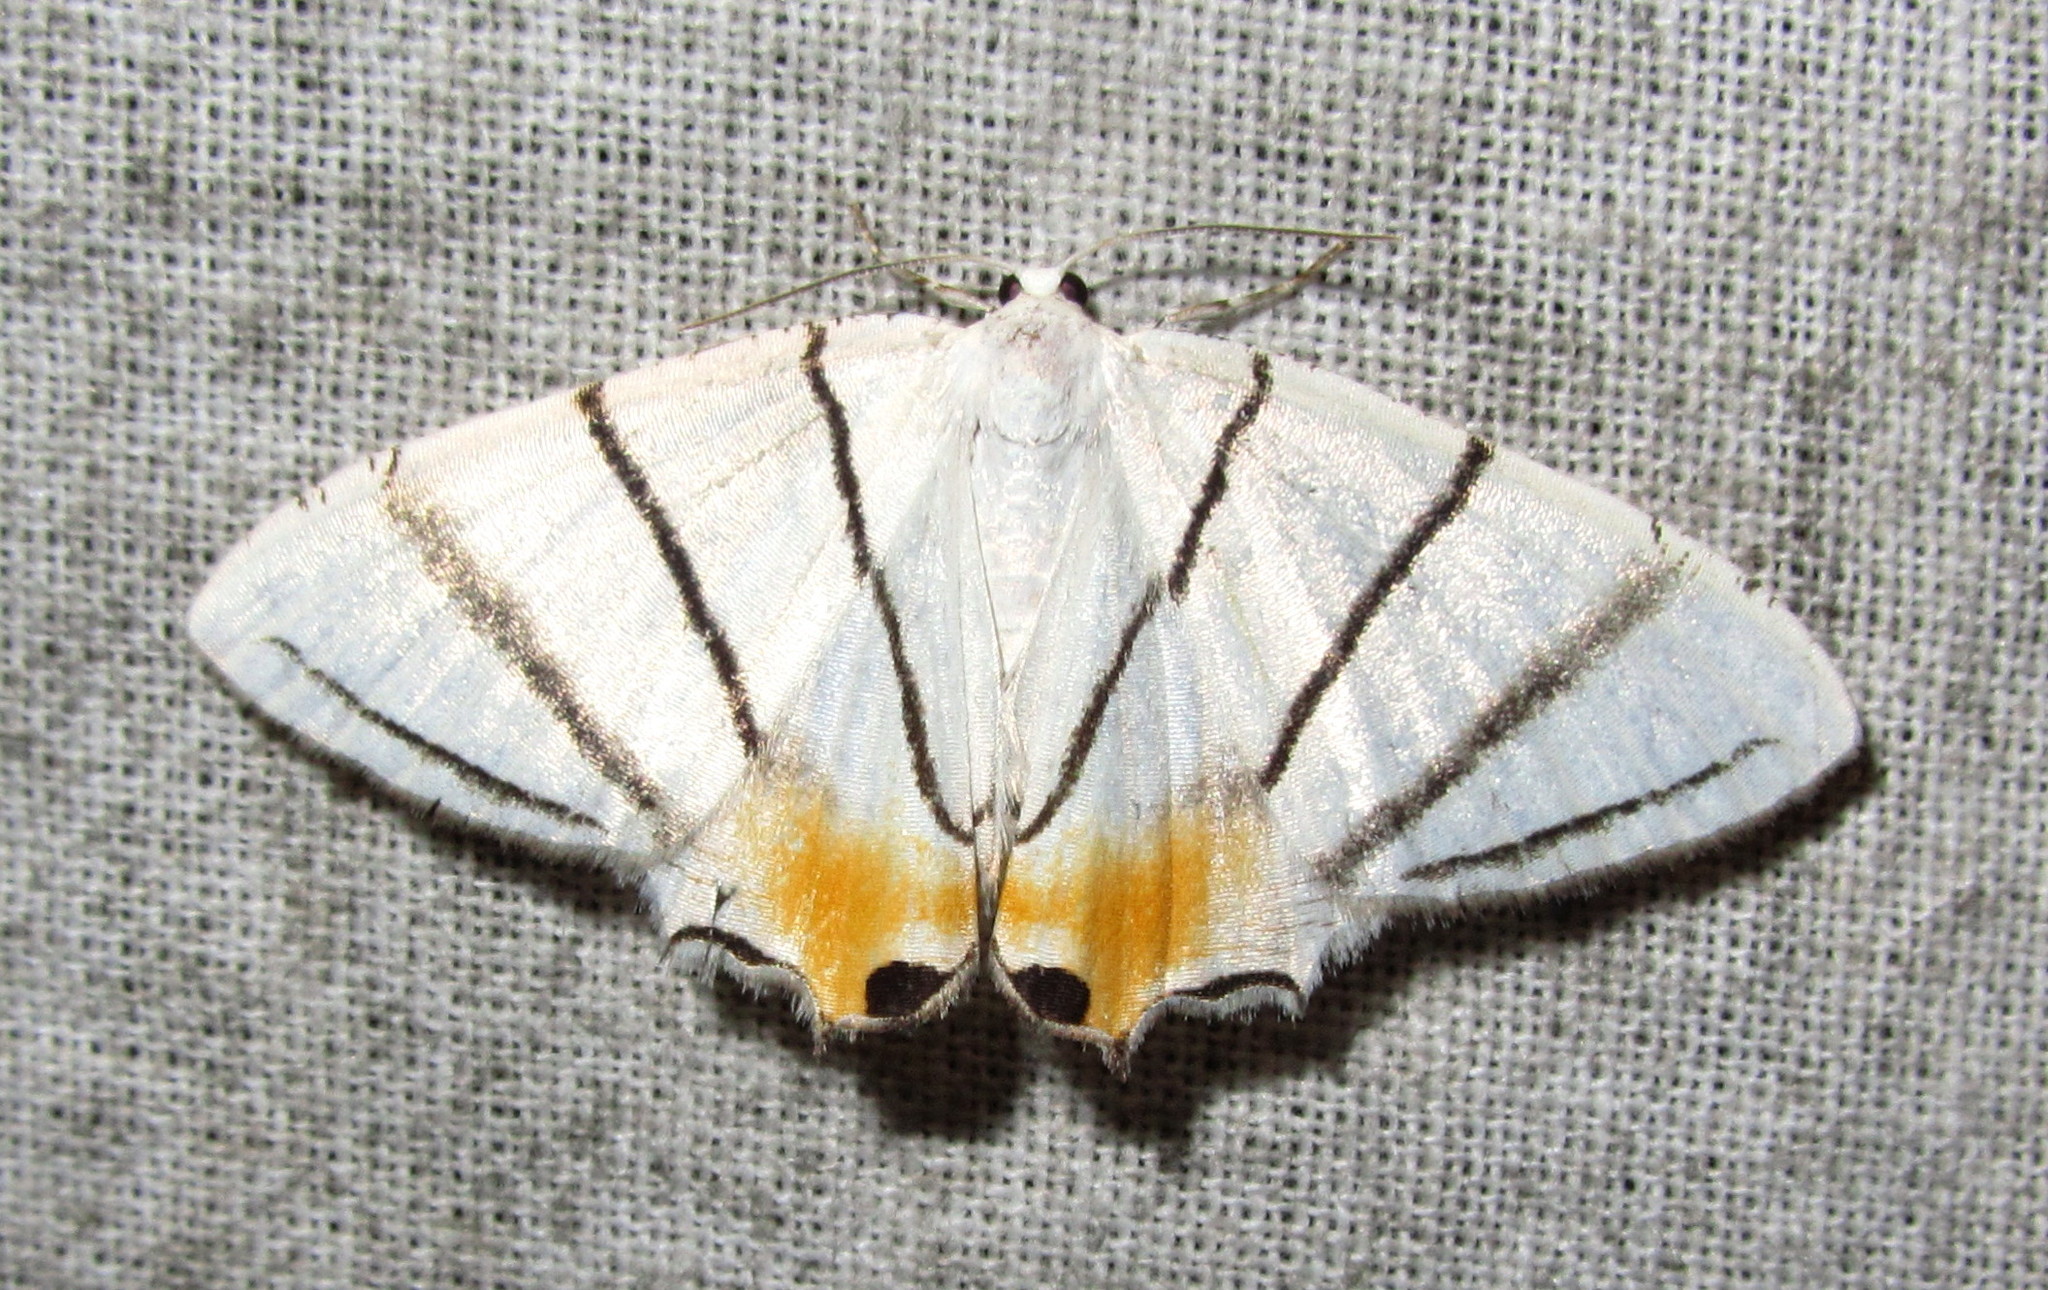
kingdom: Animalia
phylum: Arthropoda
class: Insecta
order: Lepidoptera
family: Uraniidae
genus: Epiplema
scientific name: Epiplema himala
